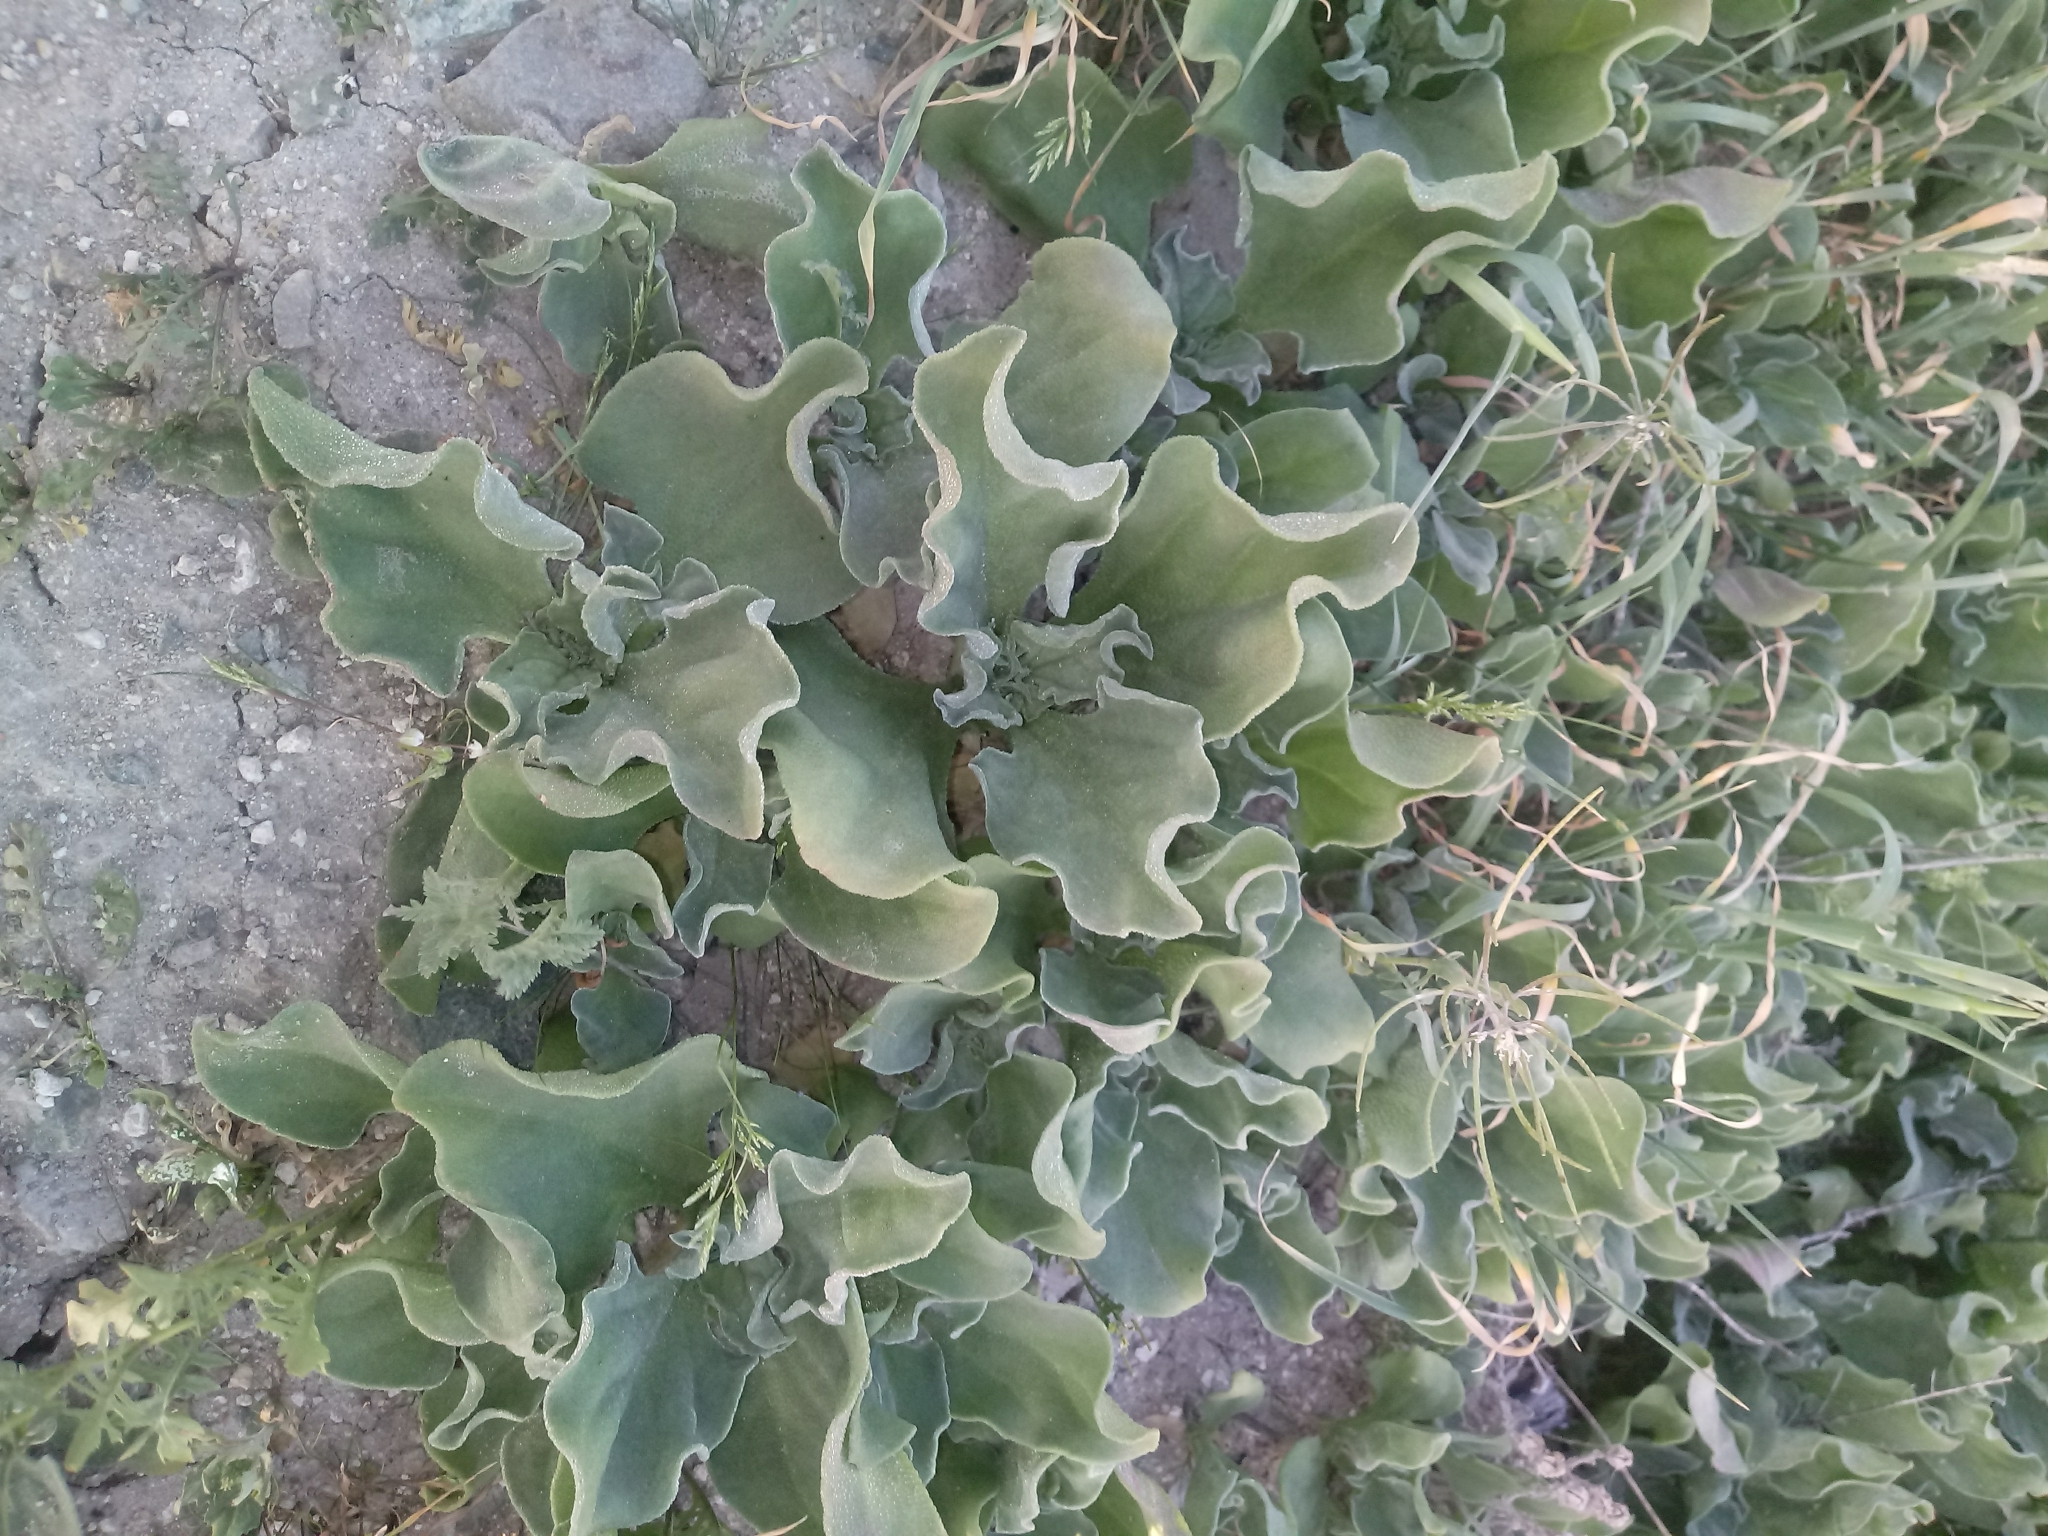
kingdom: Plantae
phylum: Tracheophyta
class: Magnoliopsida
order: Caryophyllales
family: Aizoaceae
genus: Mesembryanthemum
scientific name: Mesembryanthemum crystallinum
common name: Common iceplant
